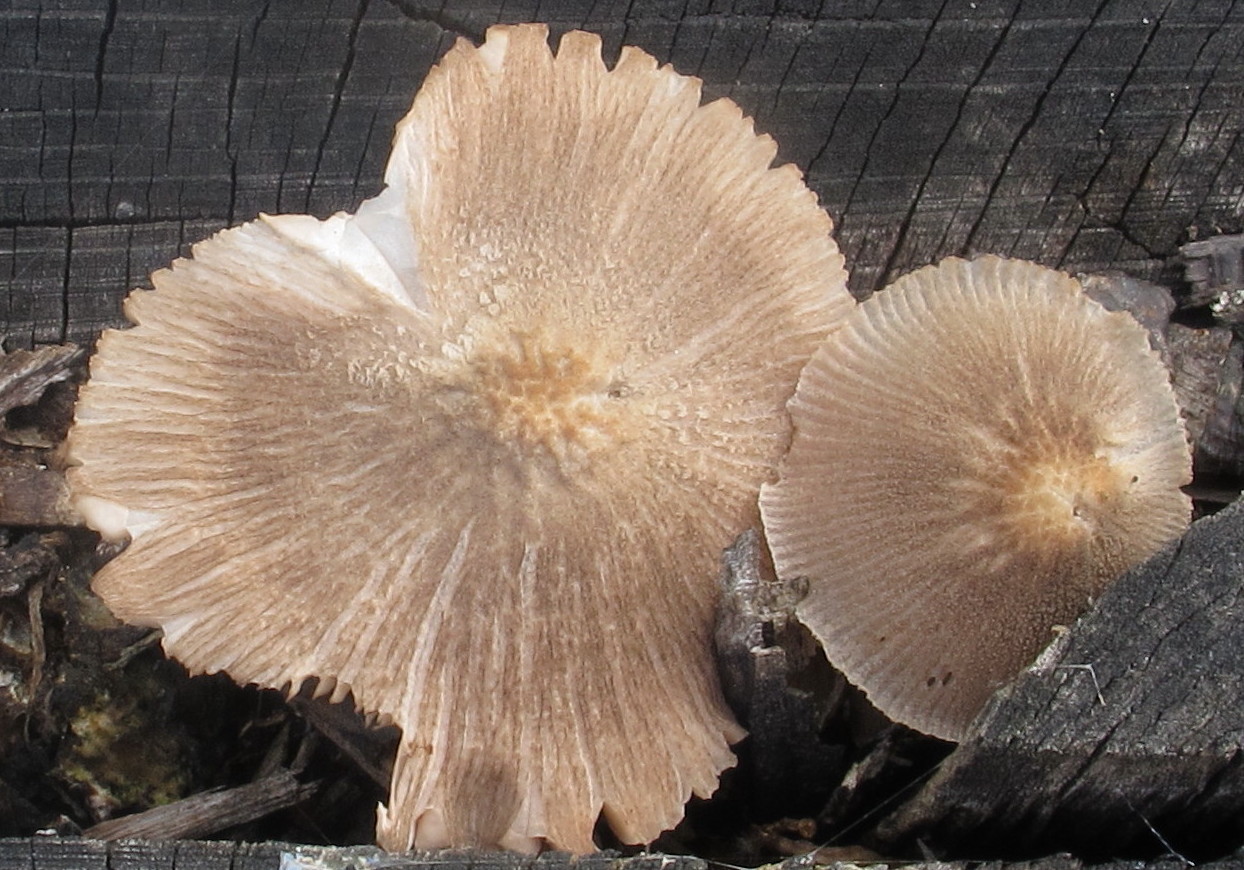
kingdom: Fungi
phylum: Basidiomycota
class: Agaricomycetes
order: Agaricales
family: Pluteaceae
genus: Pluteus
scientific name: Pluteus longistriatus
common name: Pleated pluteus
